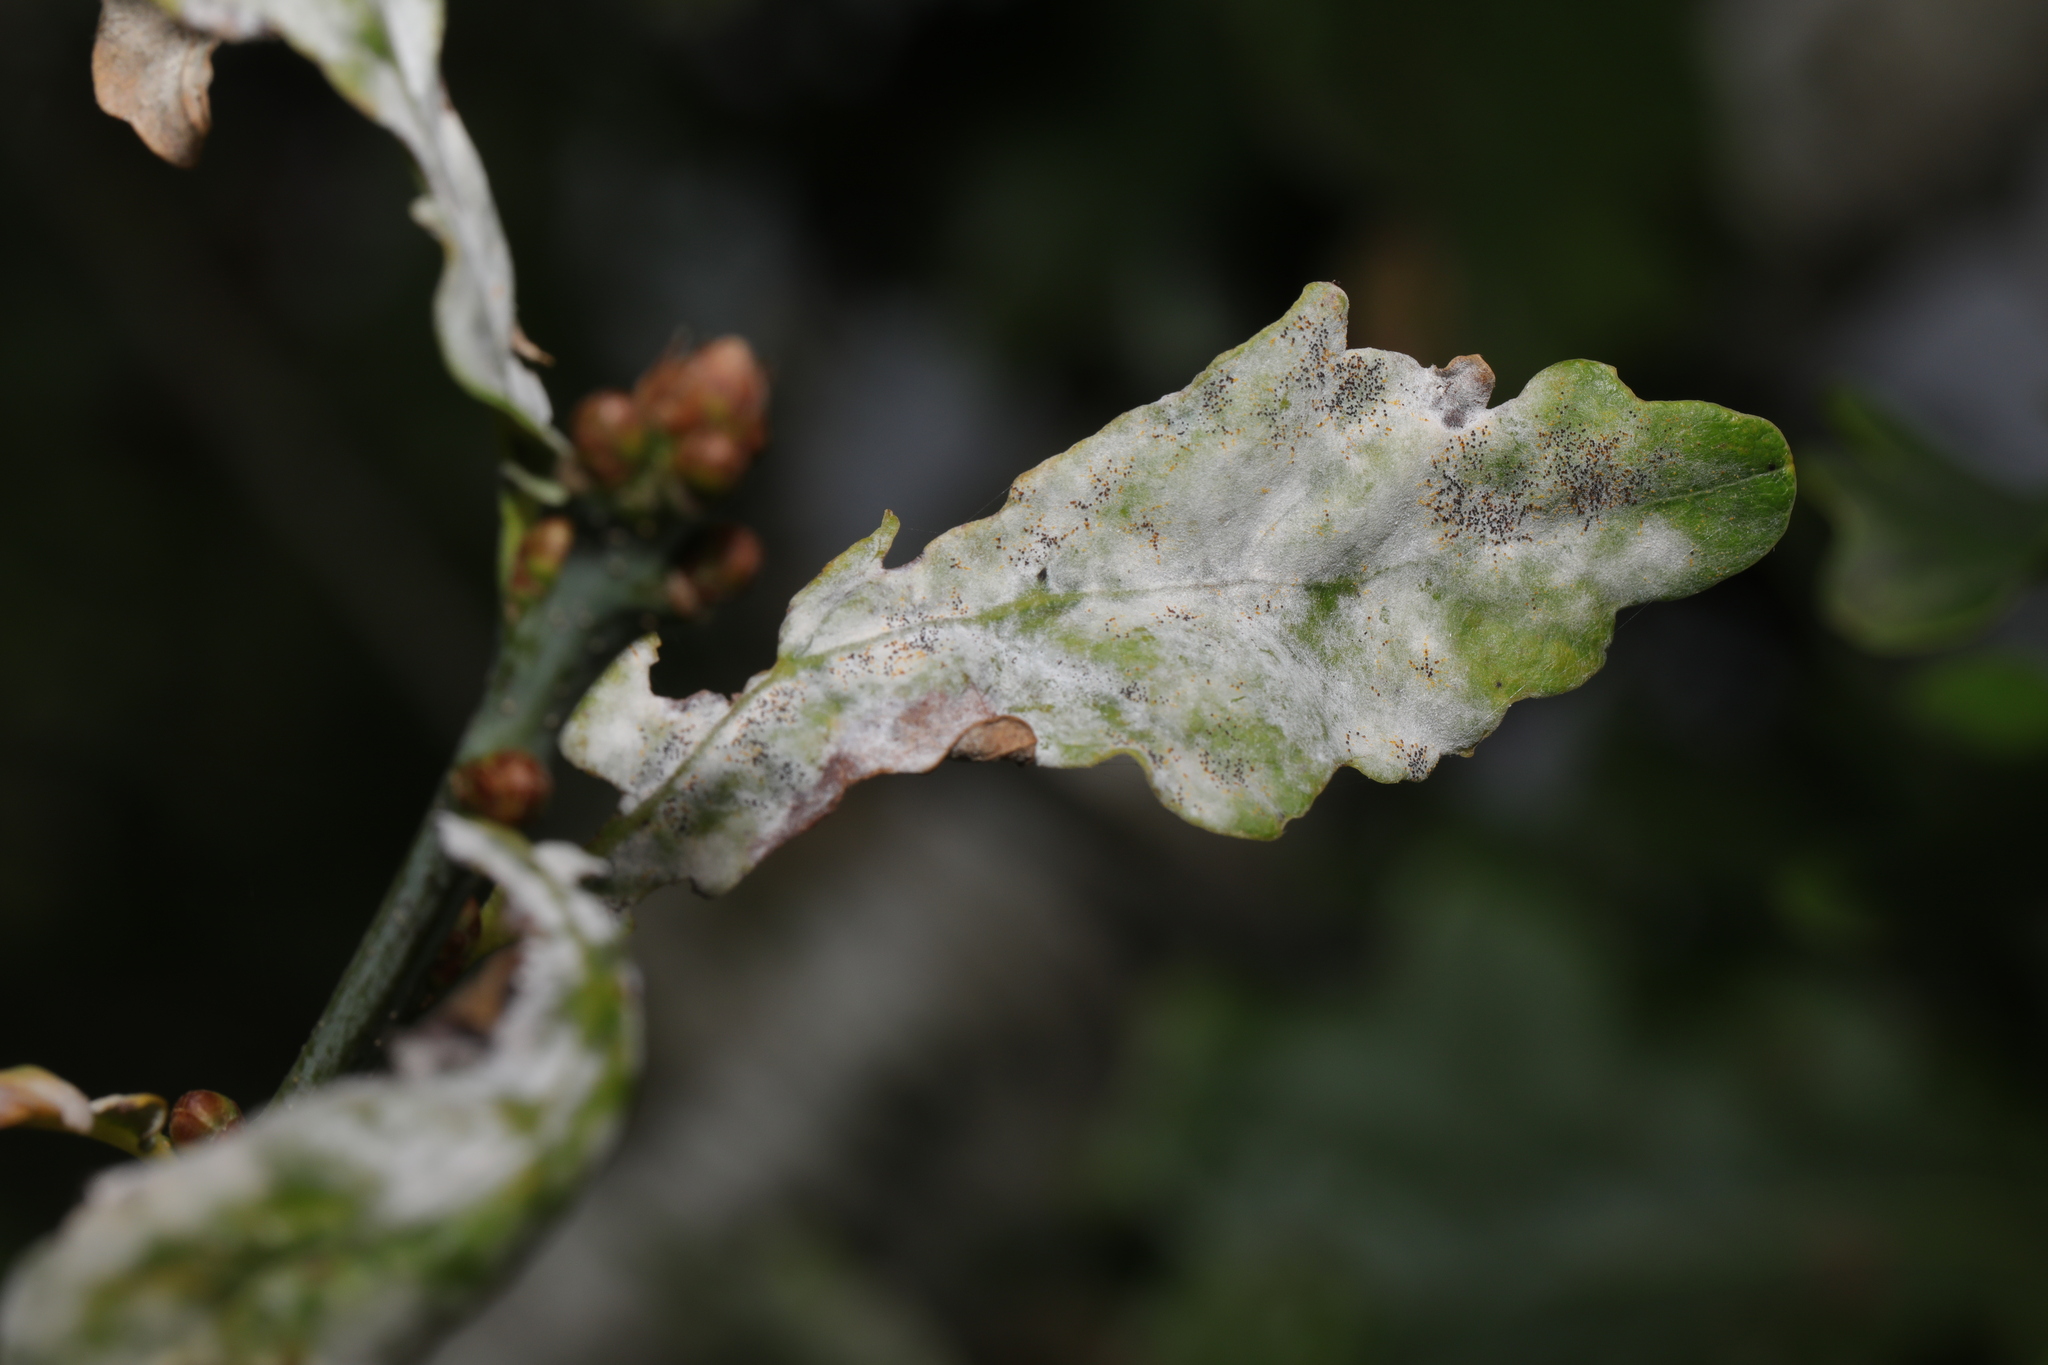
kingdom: Fungi
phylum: Ascomycota
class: Leotiomycetes
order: Helotiales
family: Erysiphaceae
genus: Erysiphe
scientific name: Erysiphe alphitoides
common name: Oak mildew
